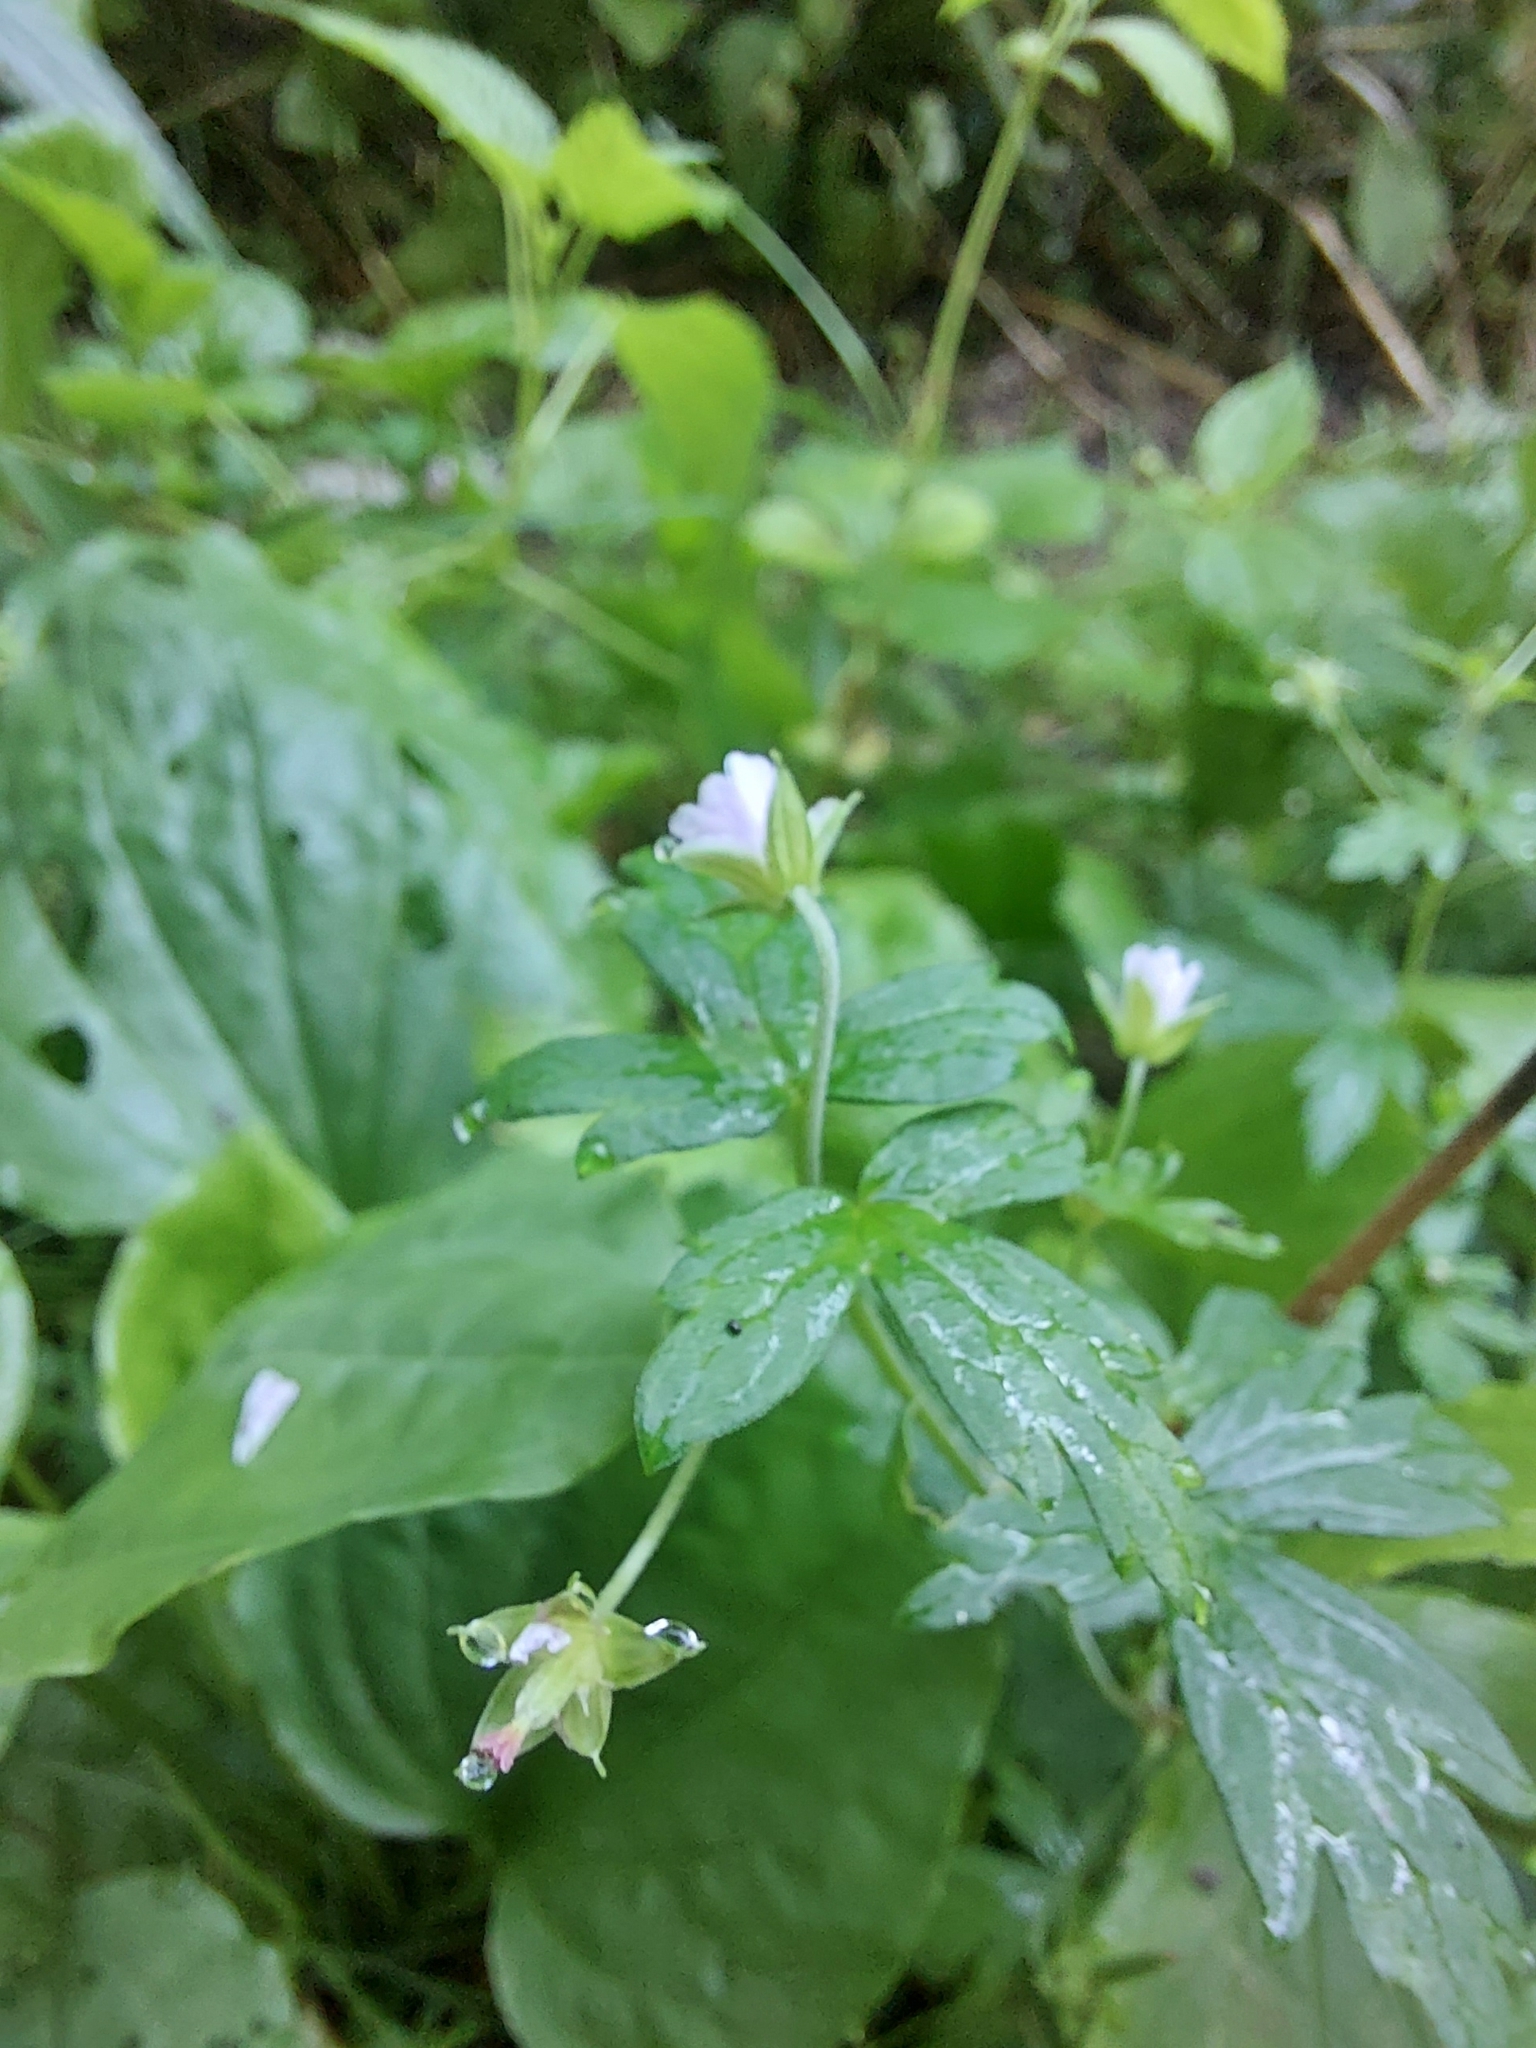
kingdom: Plantae
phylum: Tracheophyta
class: Magnoliopsida
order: Geraniales
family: Geraniaceae
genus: Geranium
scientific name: Geranium sibiricum
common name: Siberian crane's-bill
